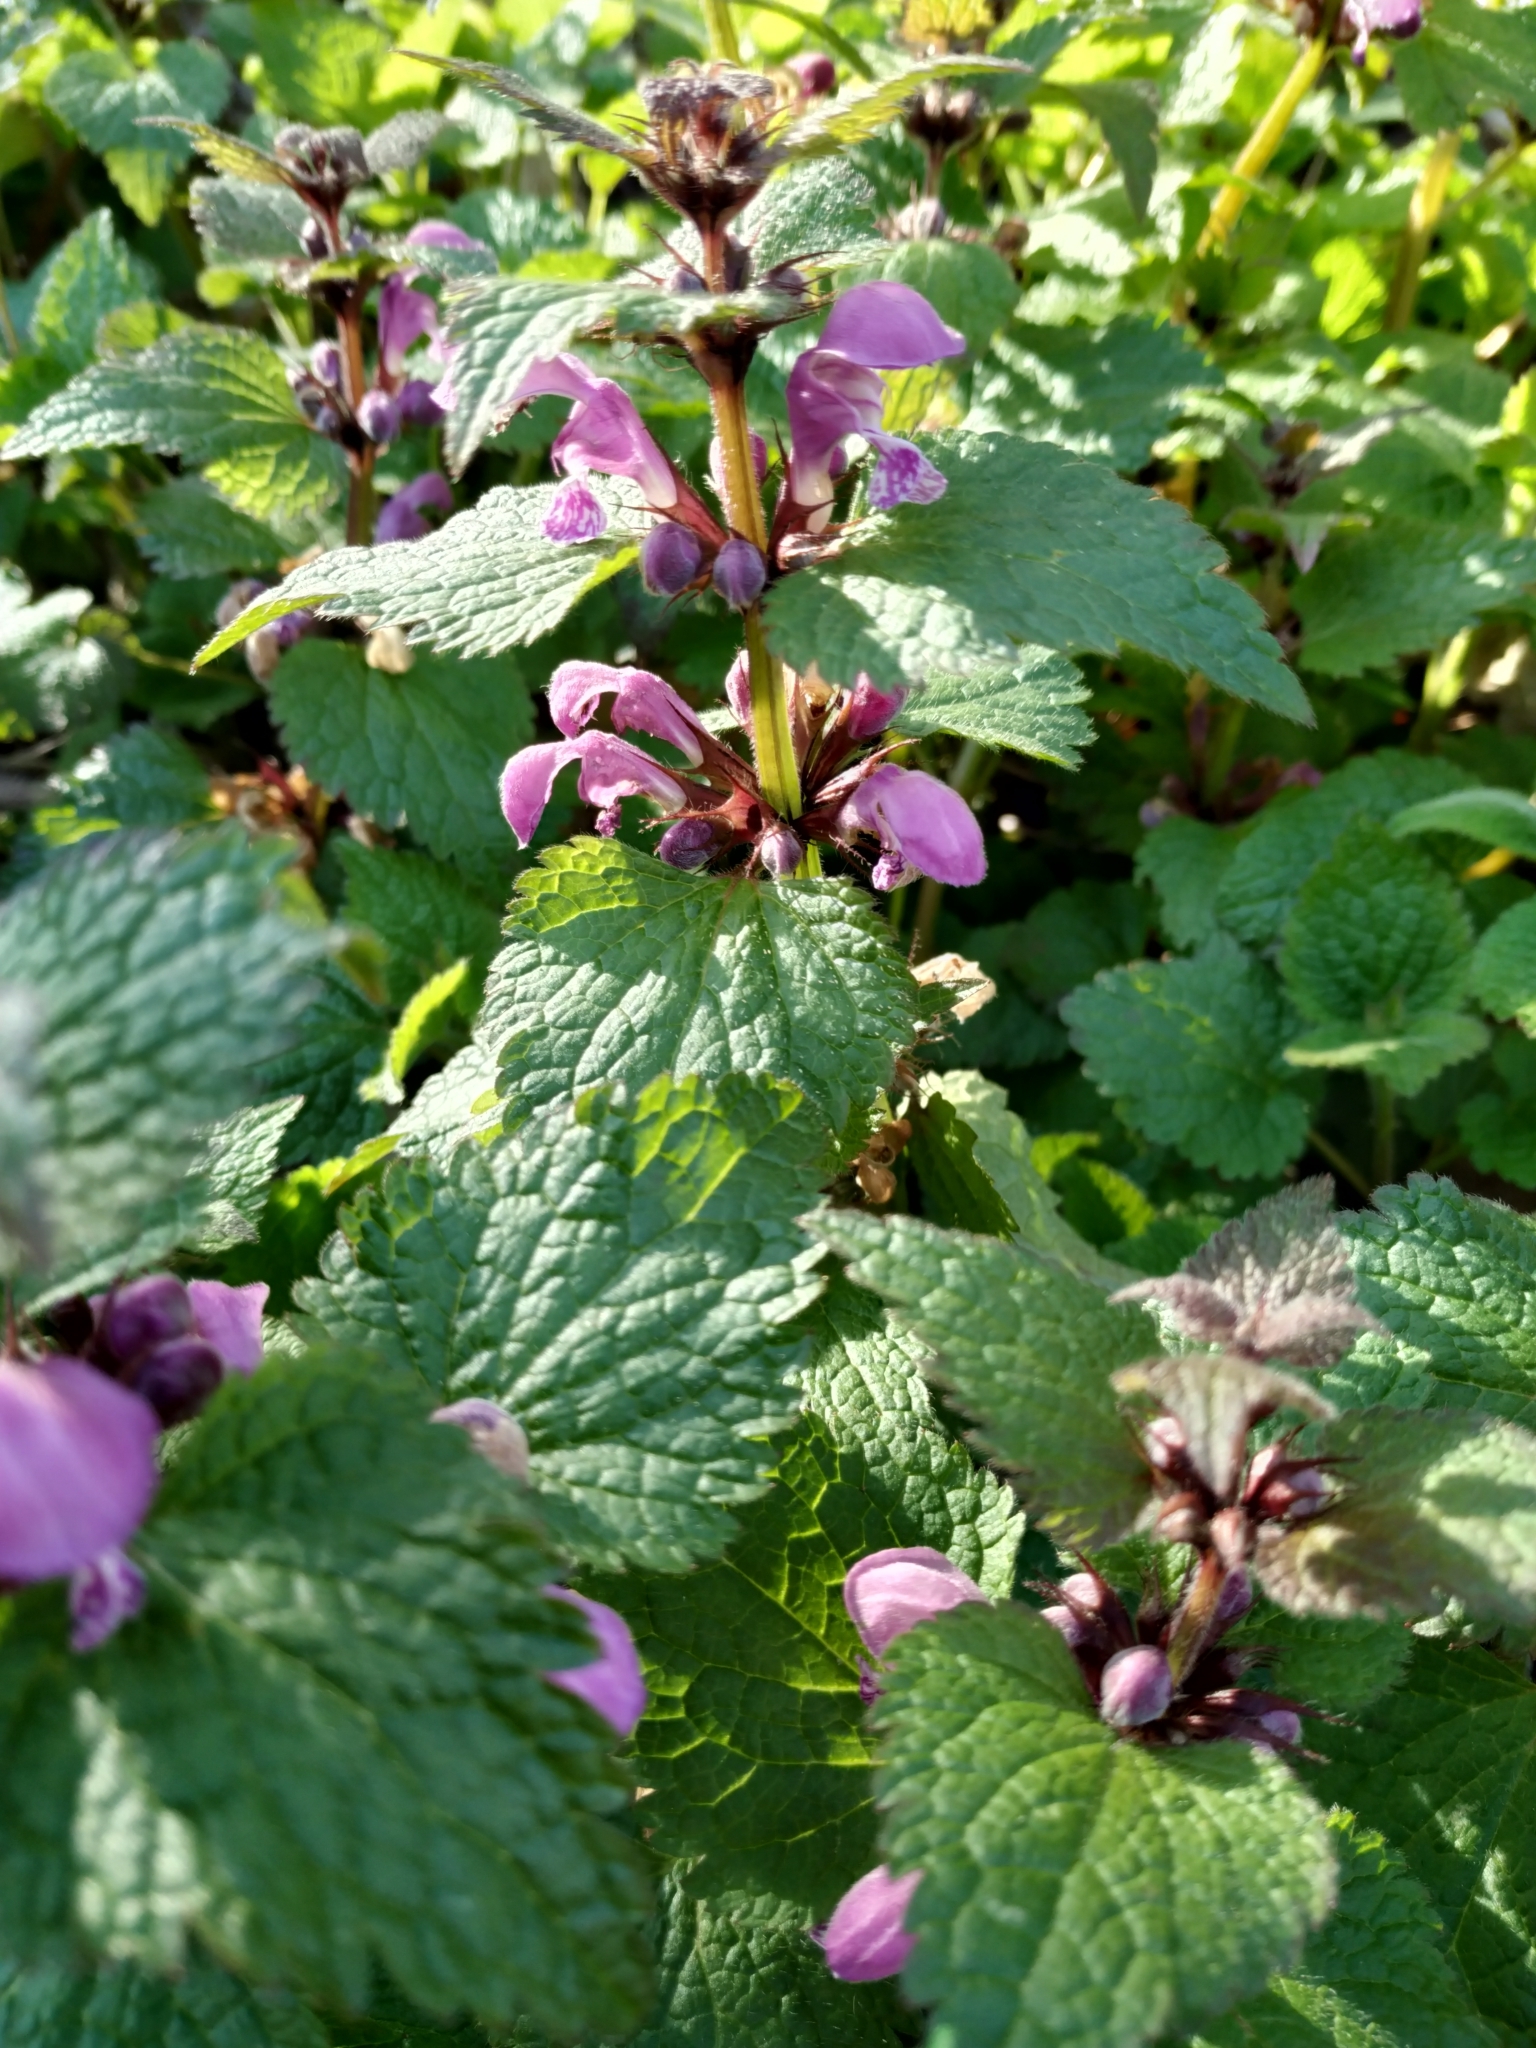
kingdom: Plantae
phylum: Tracheophyta
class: Magnoliopsida
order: Lamiales
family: Lamiaceae
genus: Lamium
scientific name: Lamium maculatum
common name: Spotted dead-nettle
